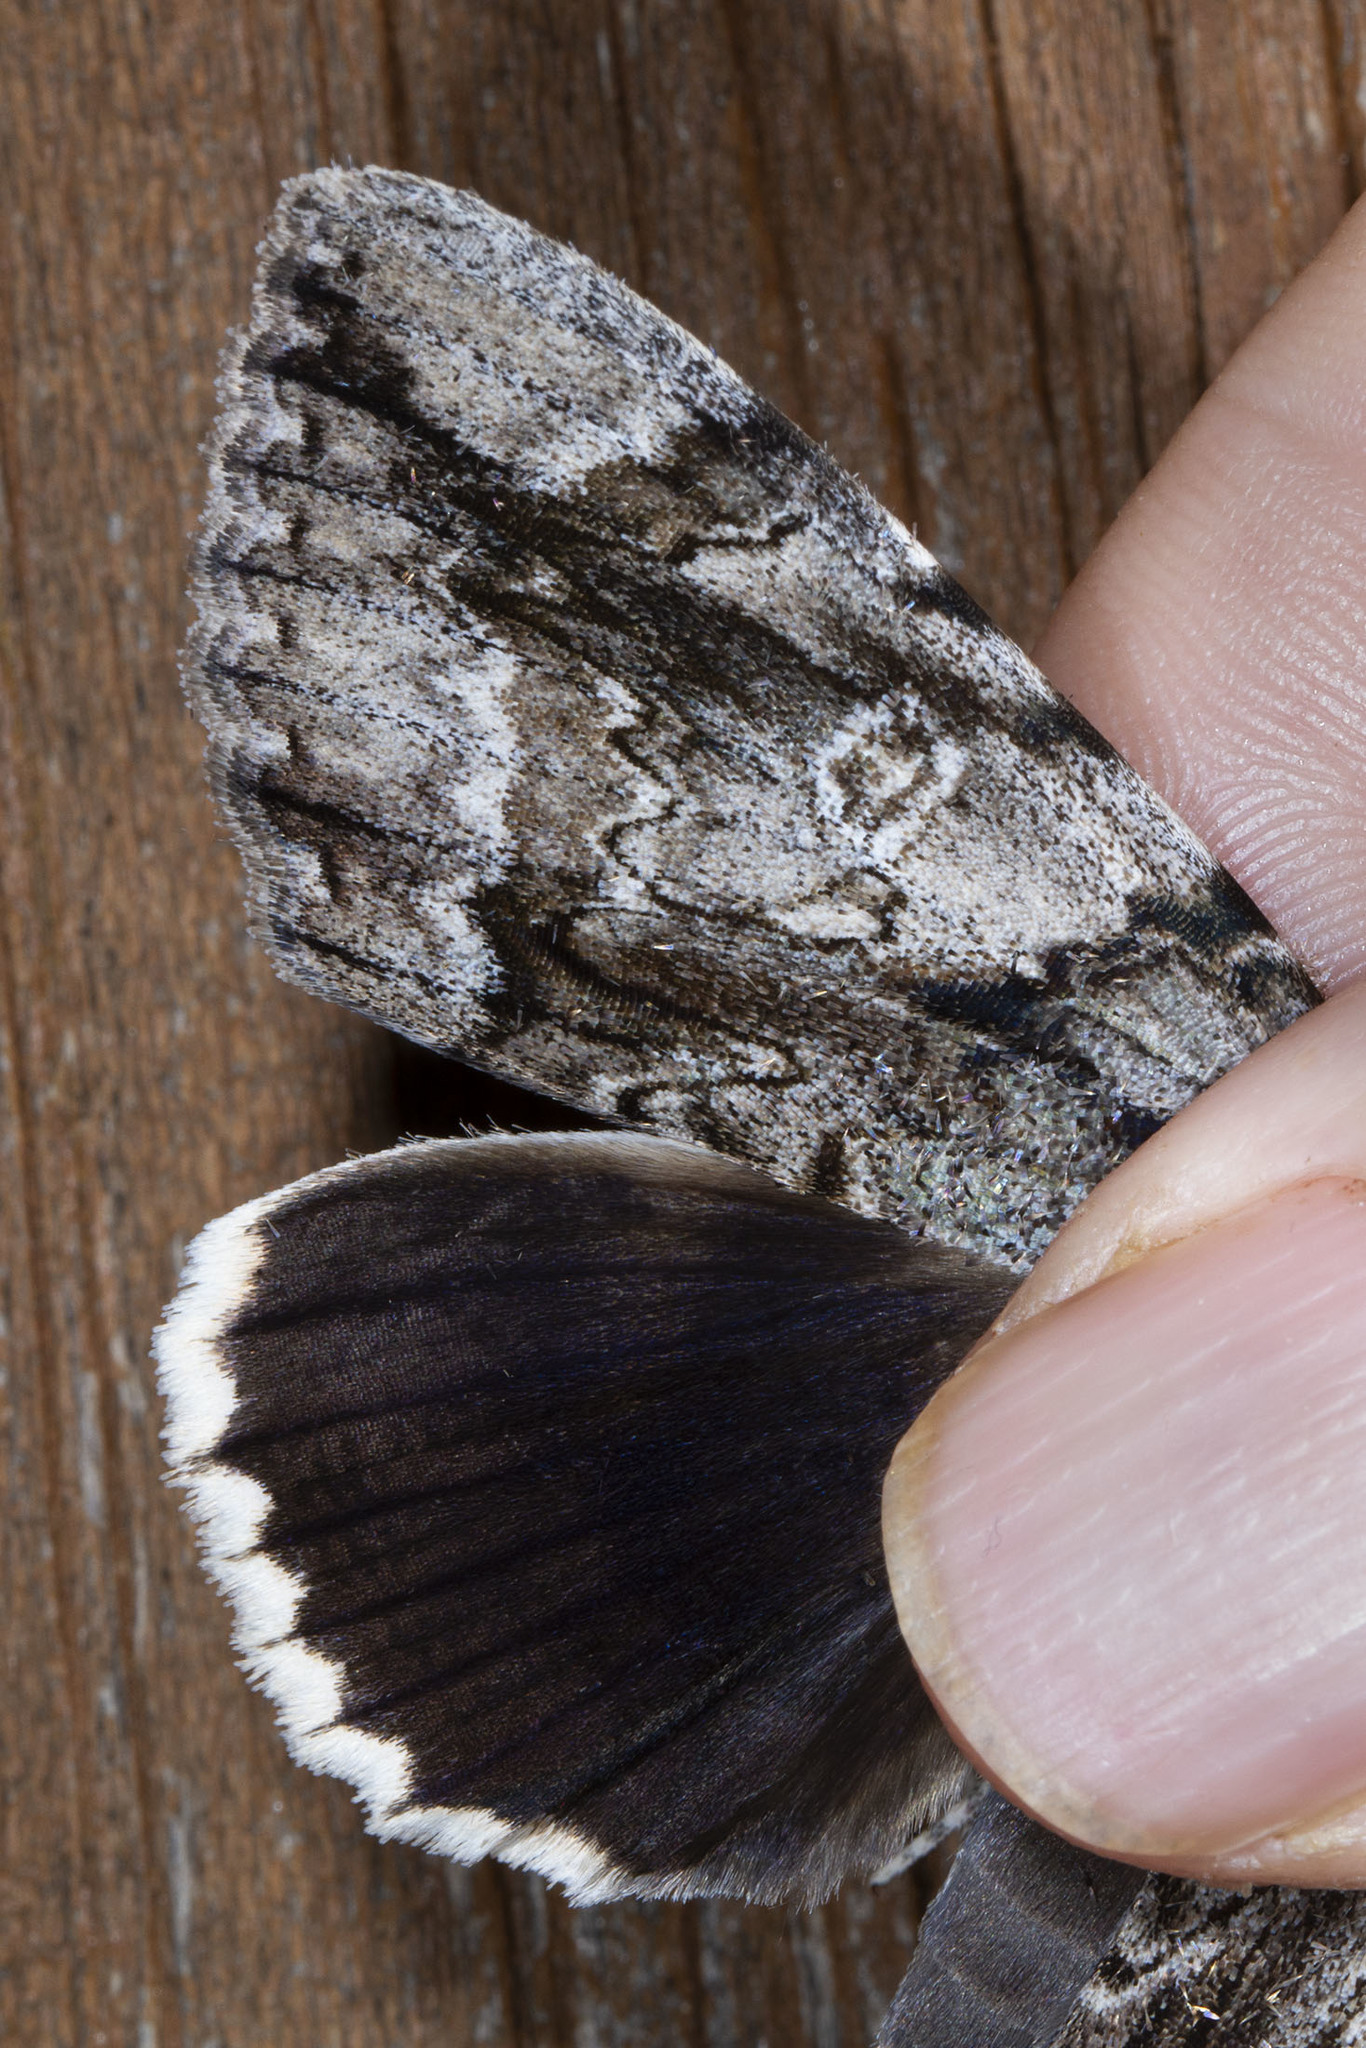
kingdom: Animalia
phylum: Arthropoda
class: Insecta
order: Lepidoptera
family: Erebidae
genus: Catocala
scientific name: Catocala vidua
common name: The widow
